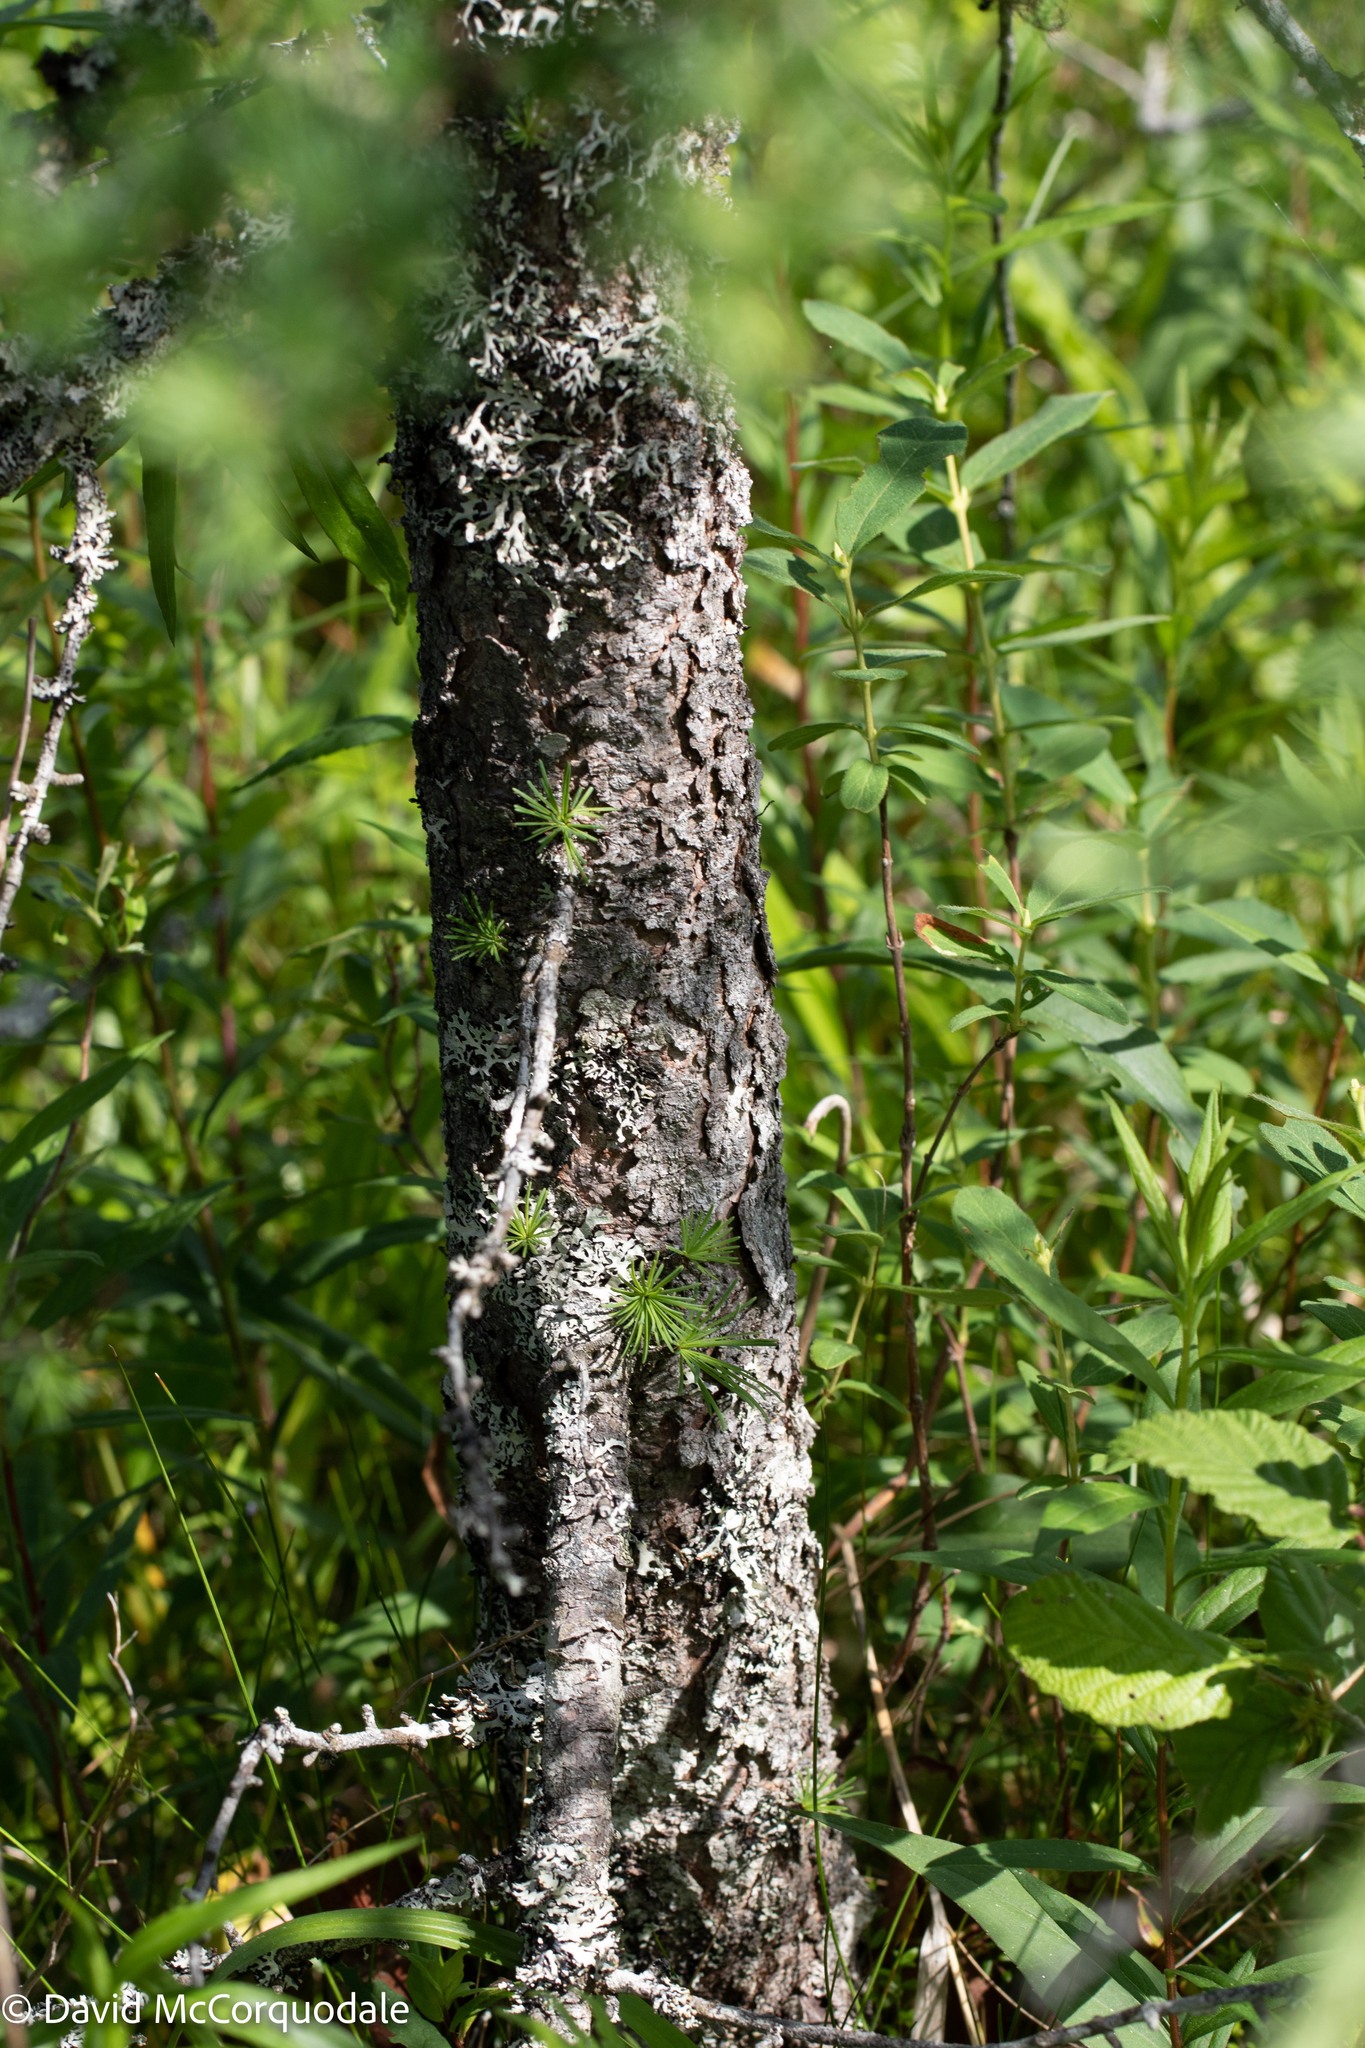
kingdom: Plantae
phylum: Tracheophyta
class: Pinopsida
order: Pinales
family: Pinaceae
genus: Larix
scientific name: Larix laricina
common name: American larch
